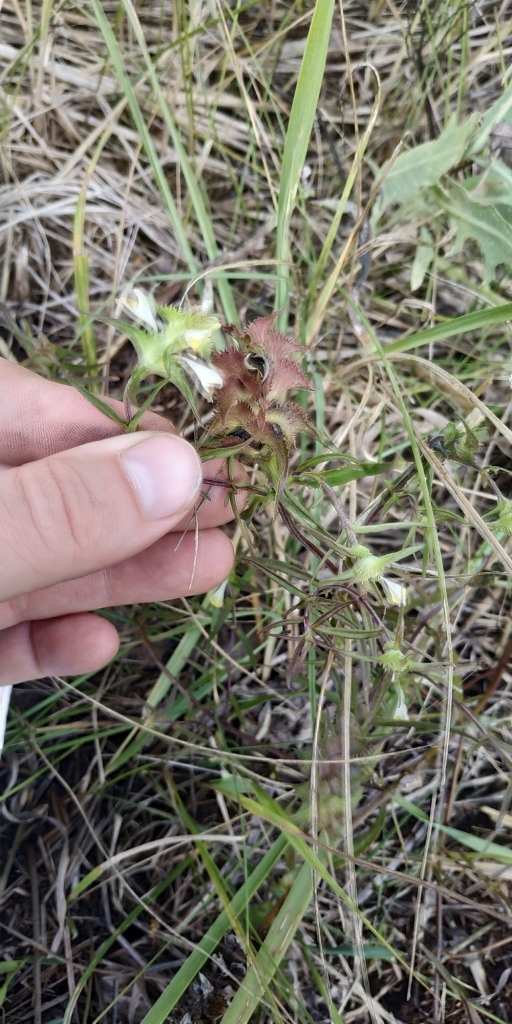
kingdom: Plantae
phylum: Tracheophyta
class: Magnoliopsida
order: Lamiales
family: Orobanchaceae
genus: Melampyrum
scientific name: Melampyrum cristatum
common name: Crested cow-wheat
